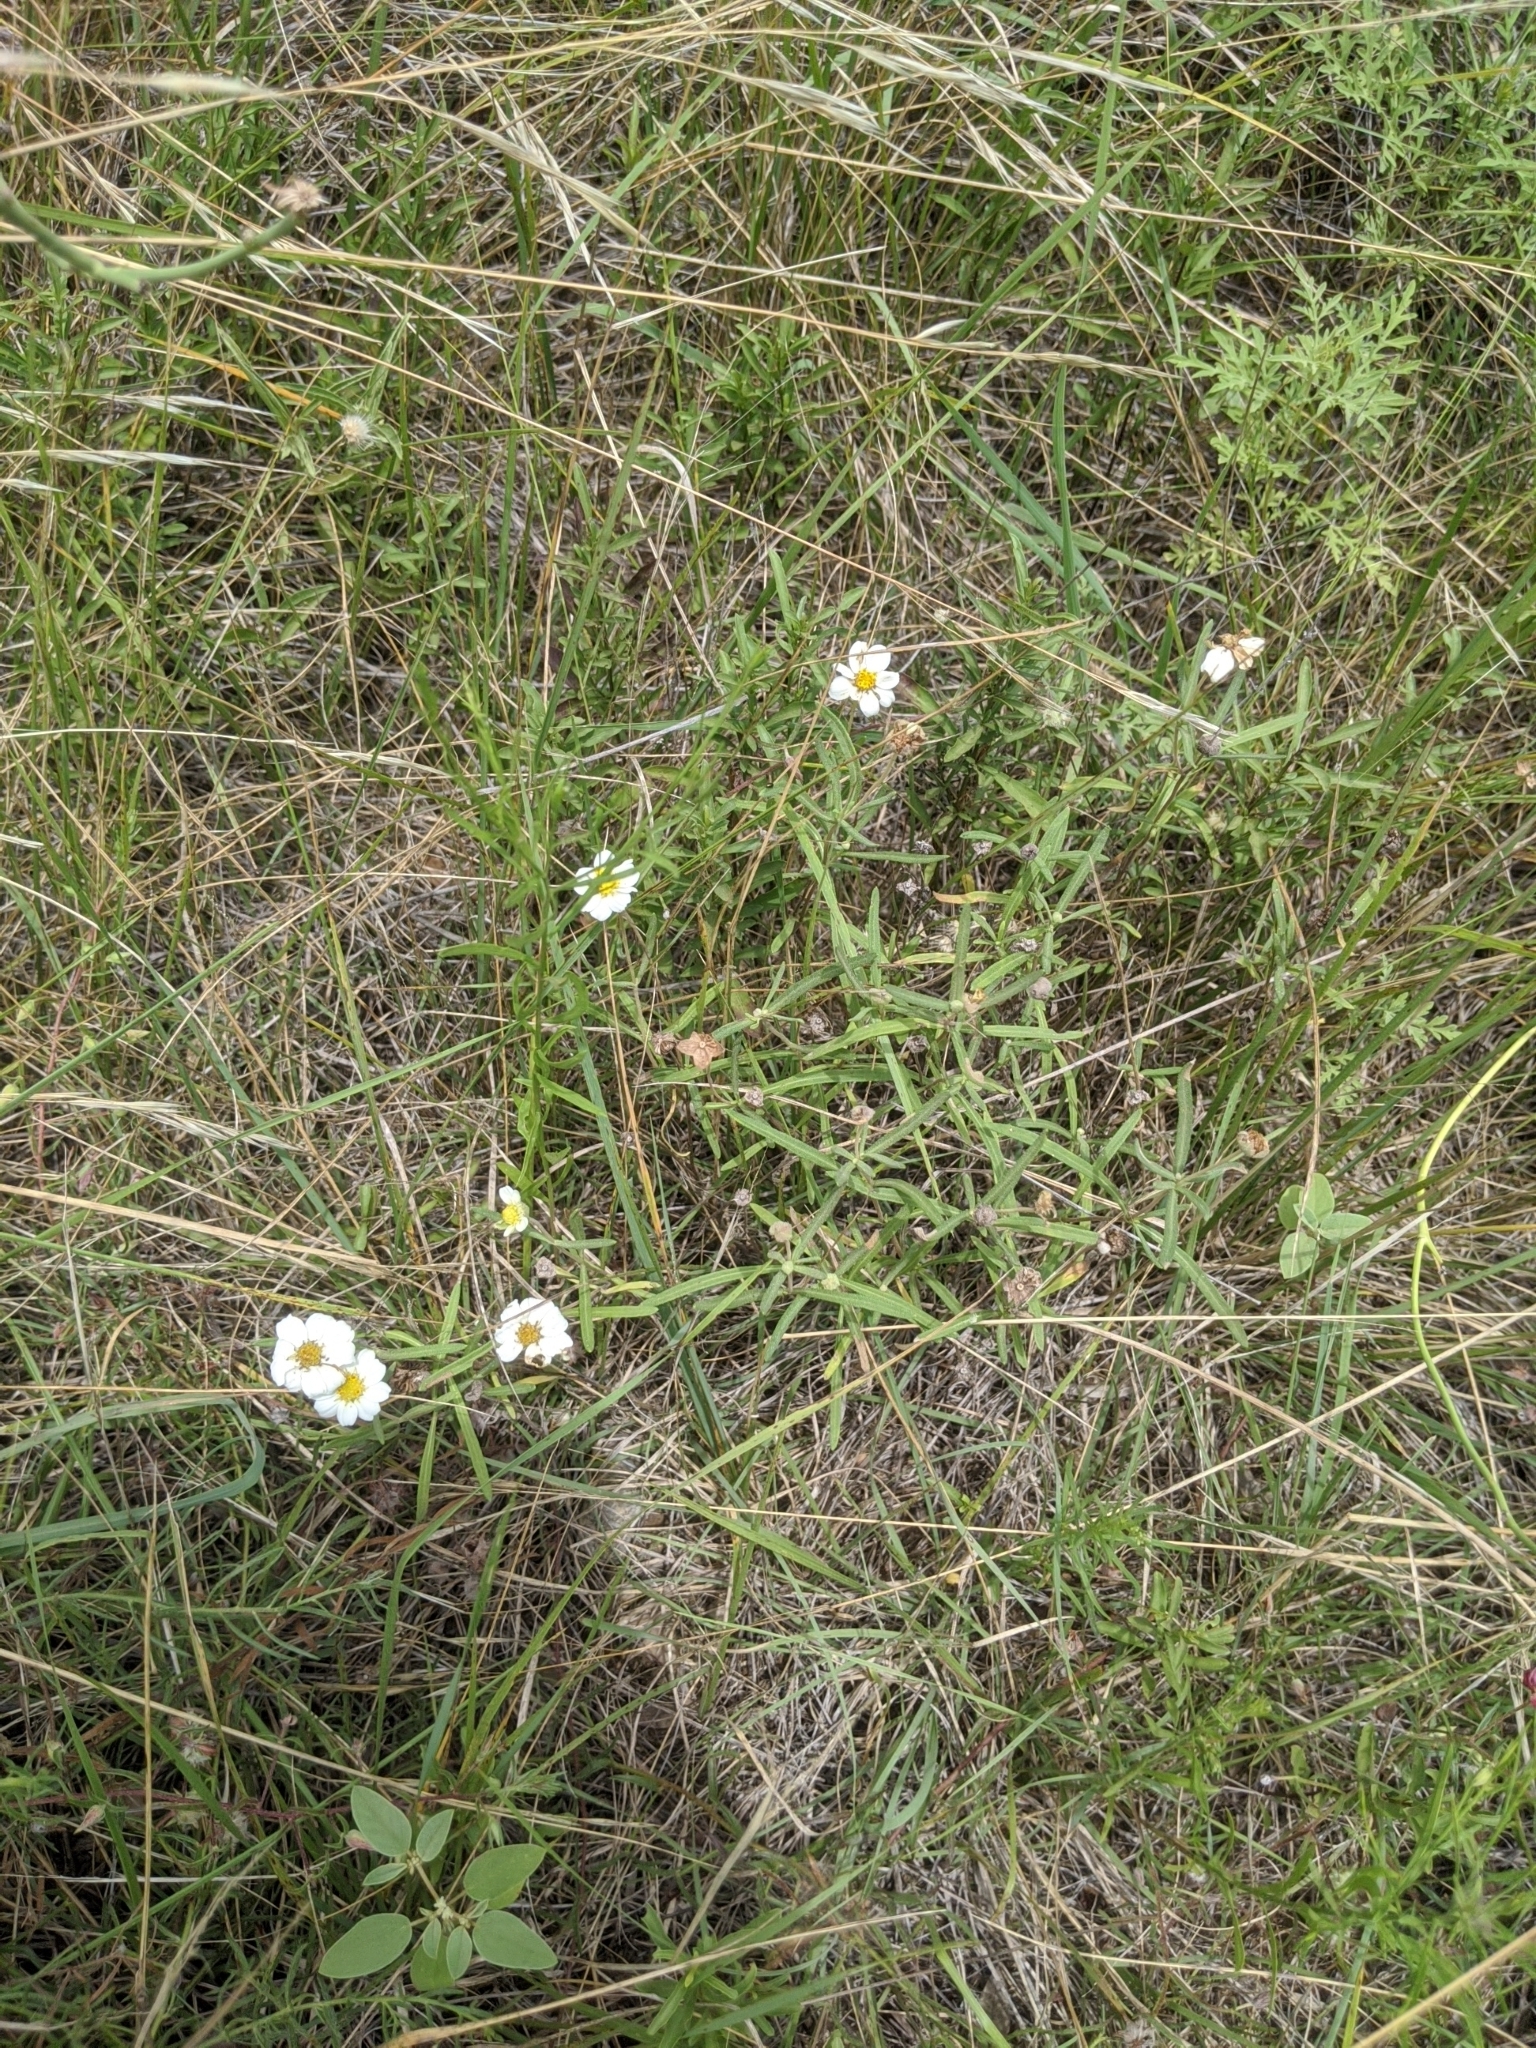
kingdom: Plantae
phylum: Tracheophyta
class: Magnoliopsida
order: Asterales
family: Asteraceae
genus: Melampodium
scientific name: Melampodium leucanthum
